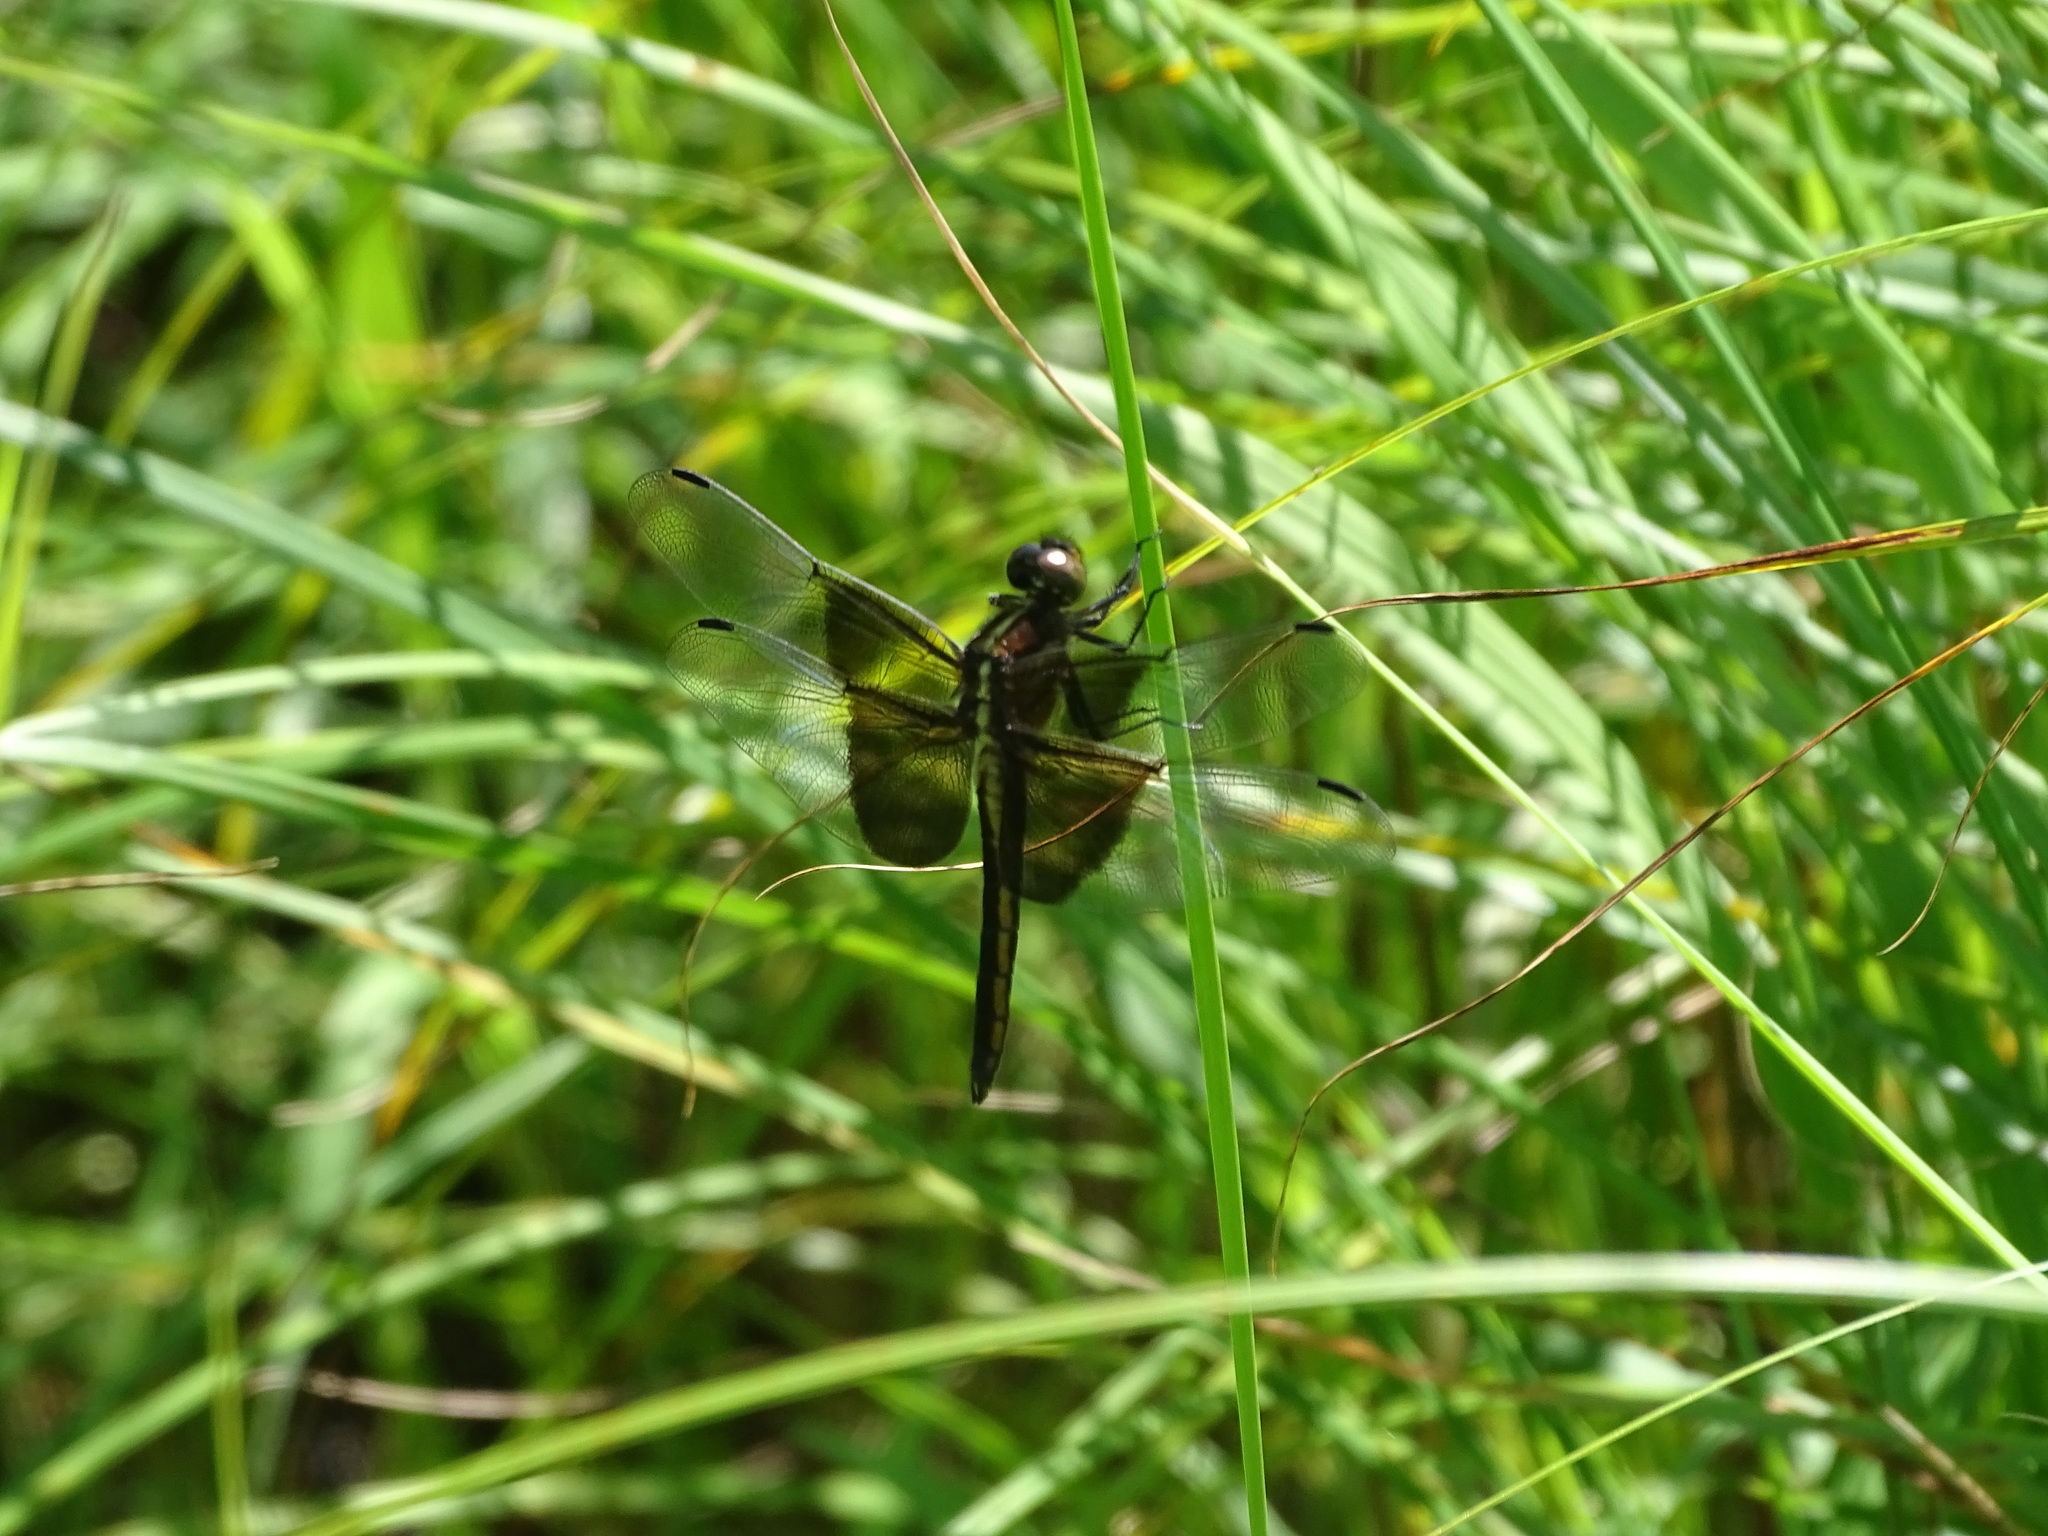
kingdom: Animalia
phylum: Arthropoda
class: Insecta
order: Odonata
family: Libellulidae
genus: Libellula
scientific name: Libellula luctuosa
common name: Widow skimmer
